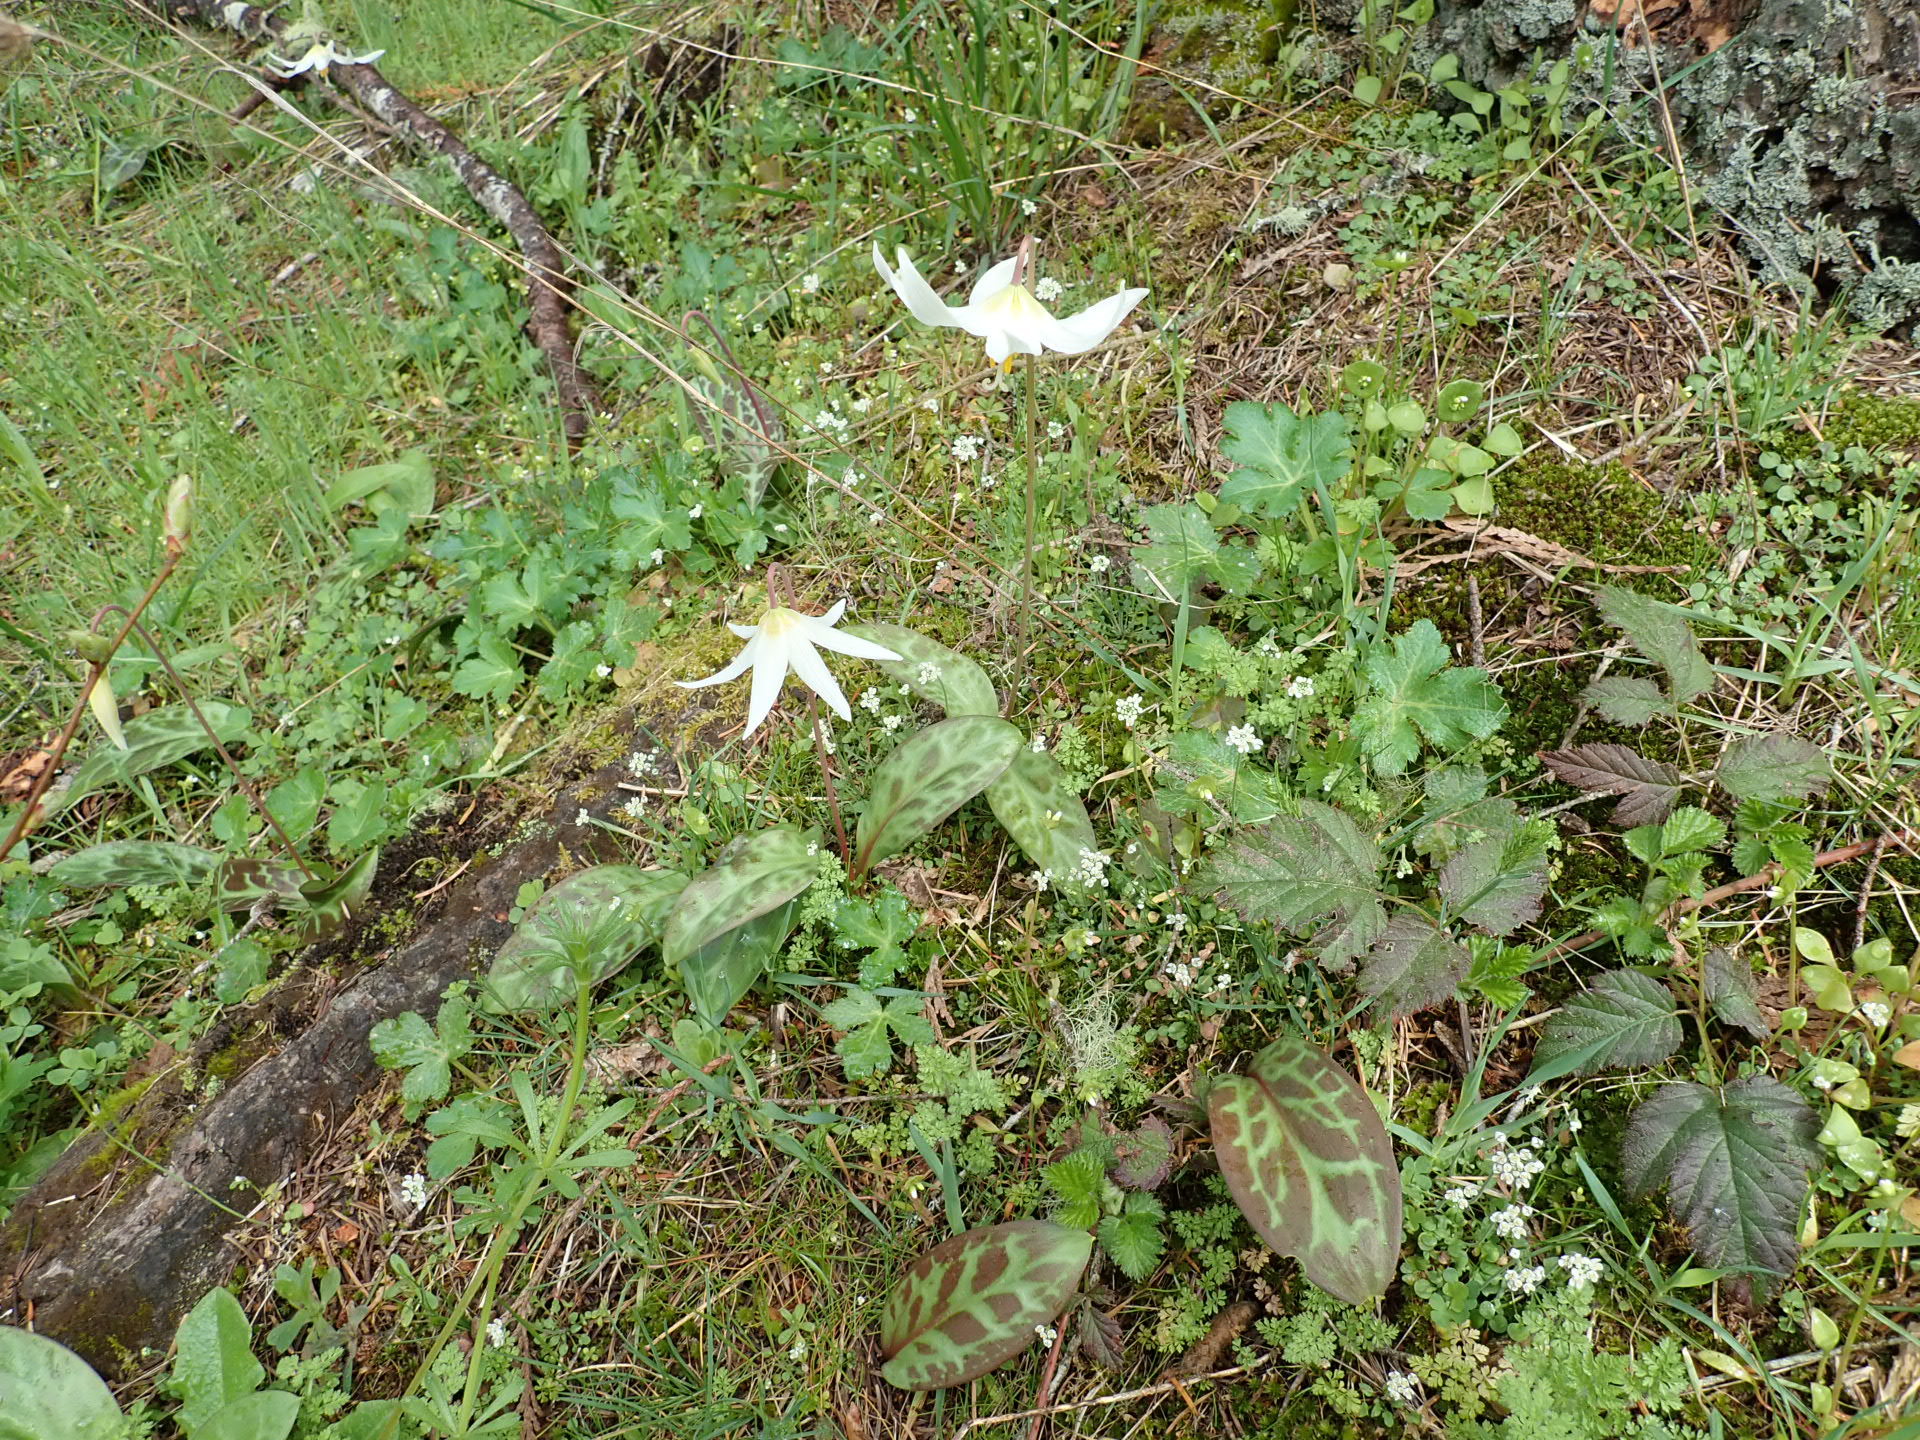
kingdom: Plantae
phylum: Tracheophyta
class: Liliopsida
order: Liliales
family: Liliaceae
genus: Erythronium
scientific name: Erythronium oregonum
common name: Giant adder's-tongue
